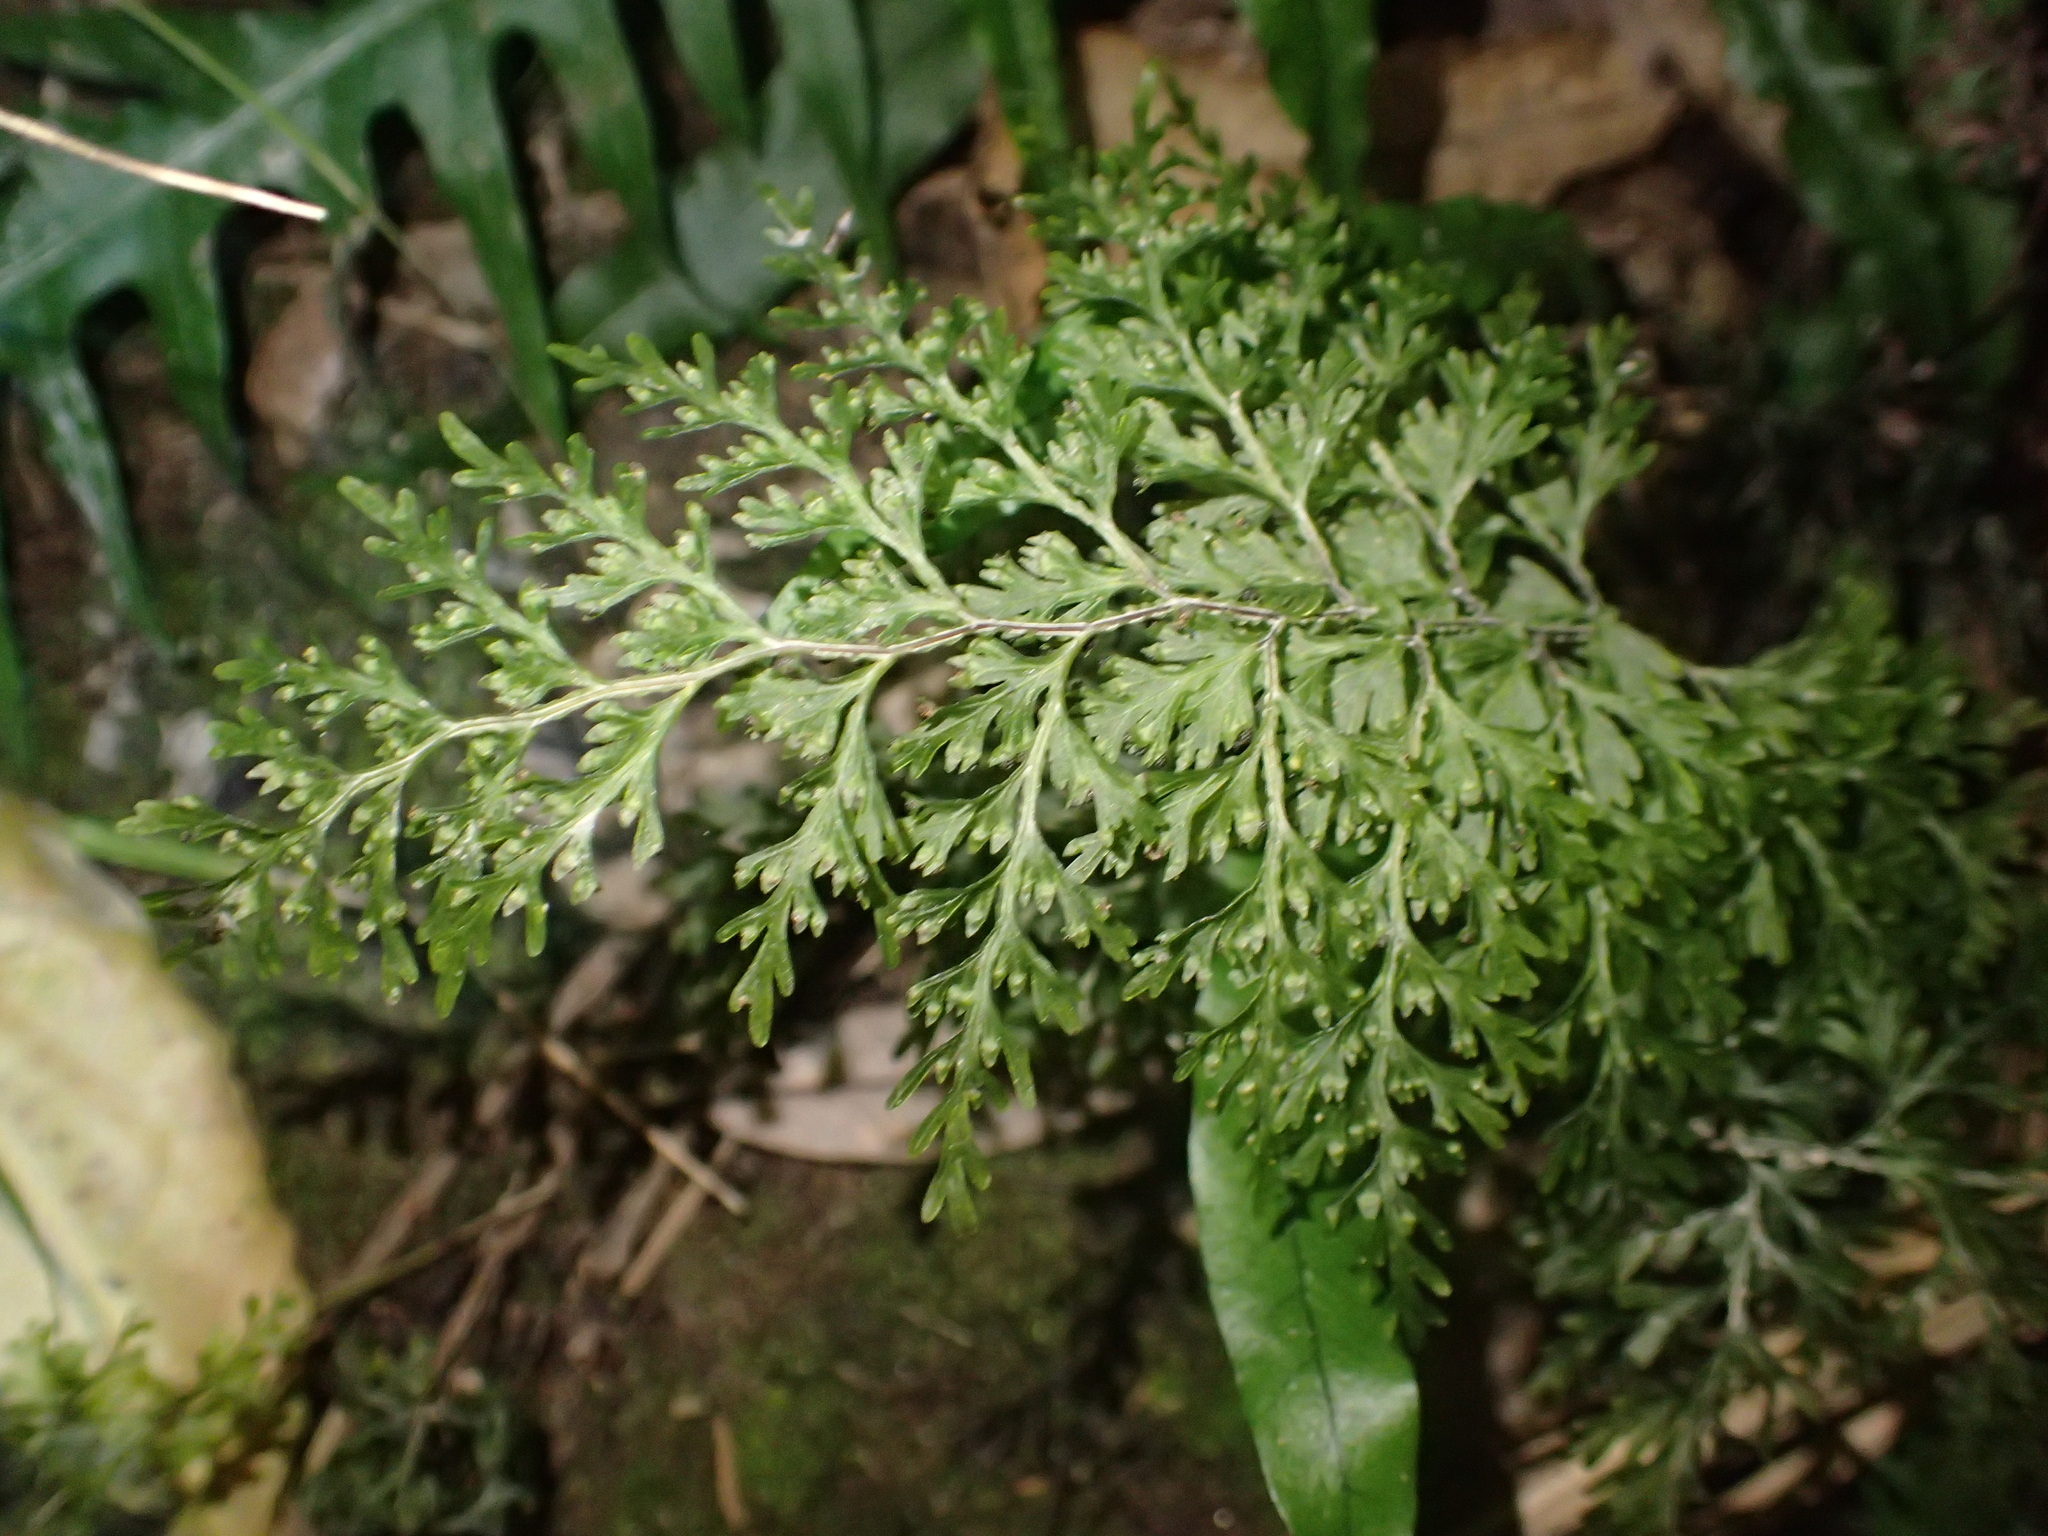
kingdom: Plantae
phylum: Tracheophyta
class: Polypodiopsida
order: Hymenophyllales
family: Hymenophyllaceae
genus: Hymenophyllum
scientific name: Hymenophyllum demissum
